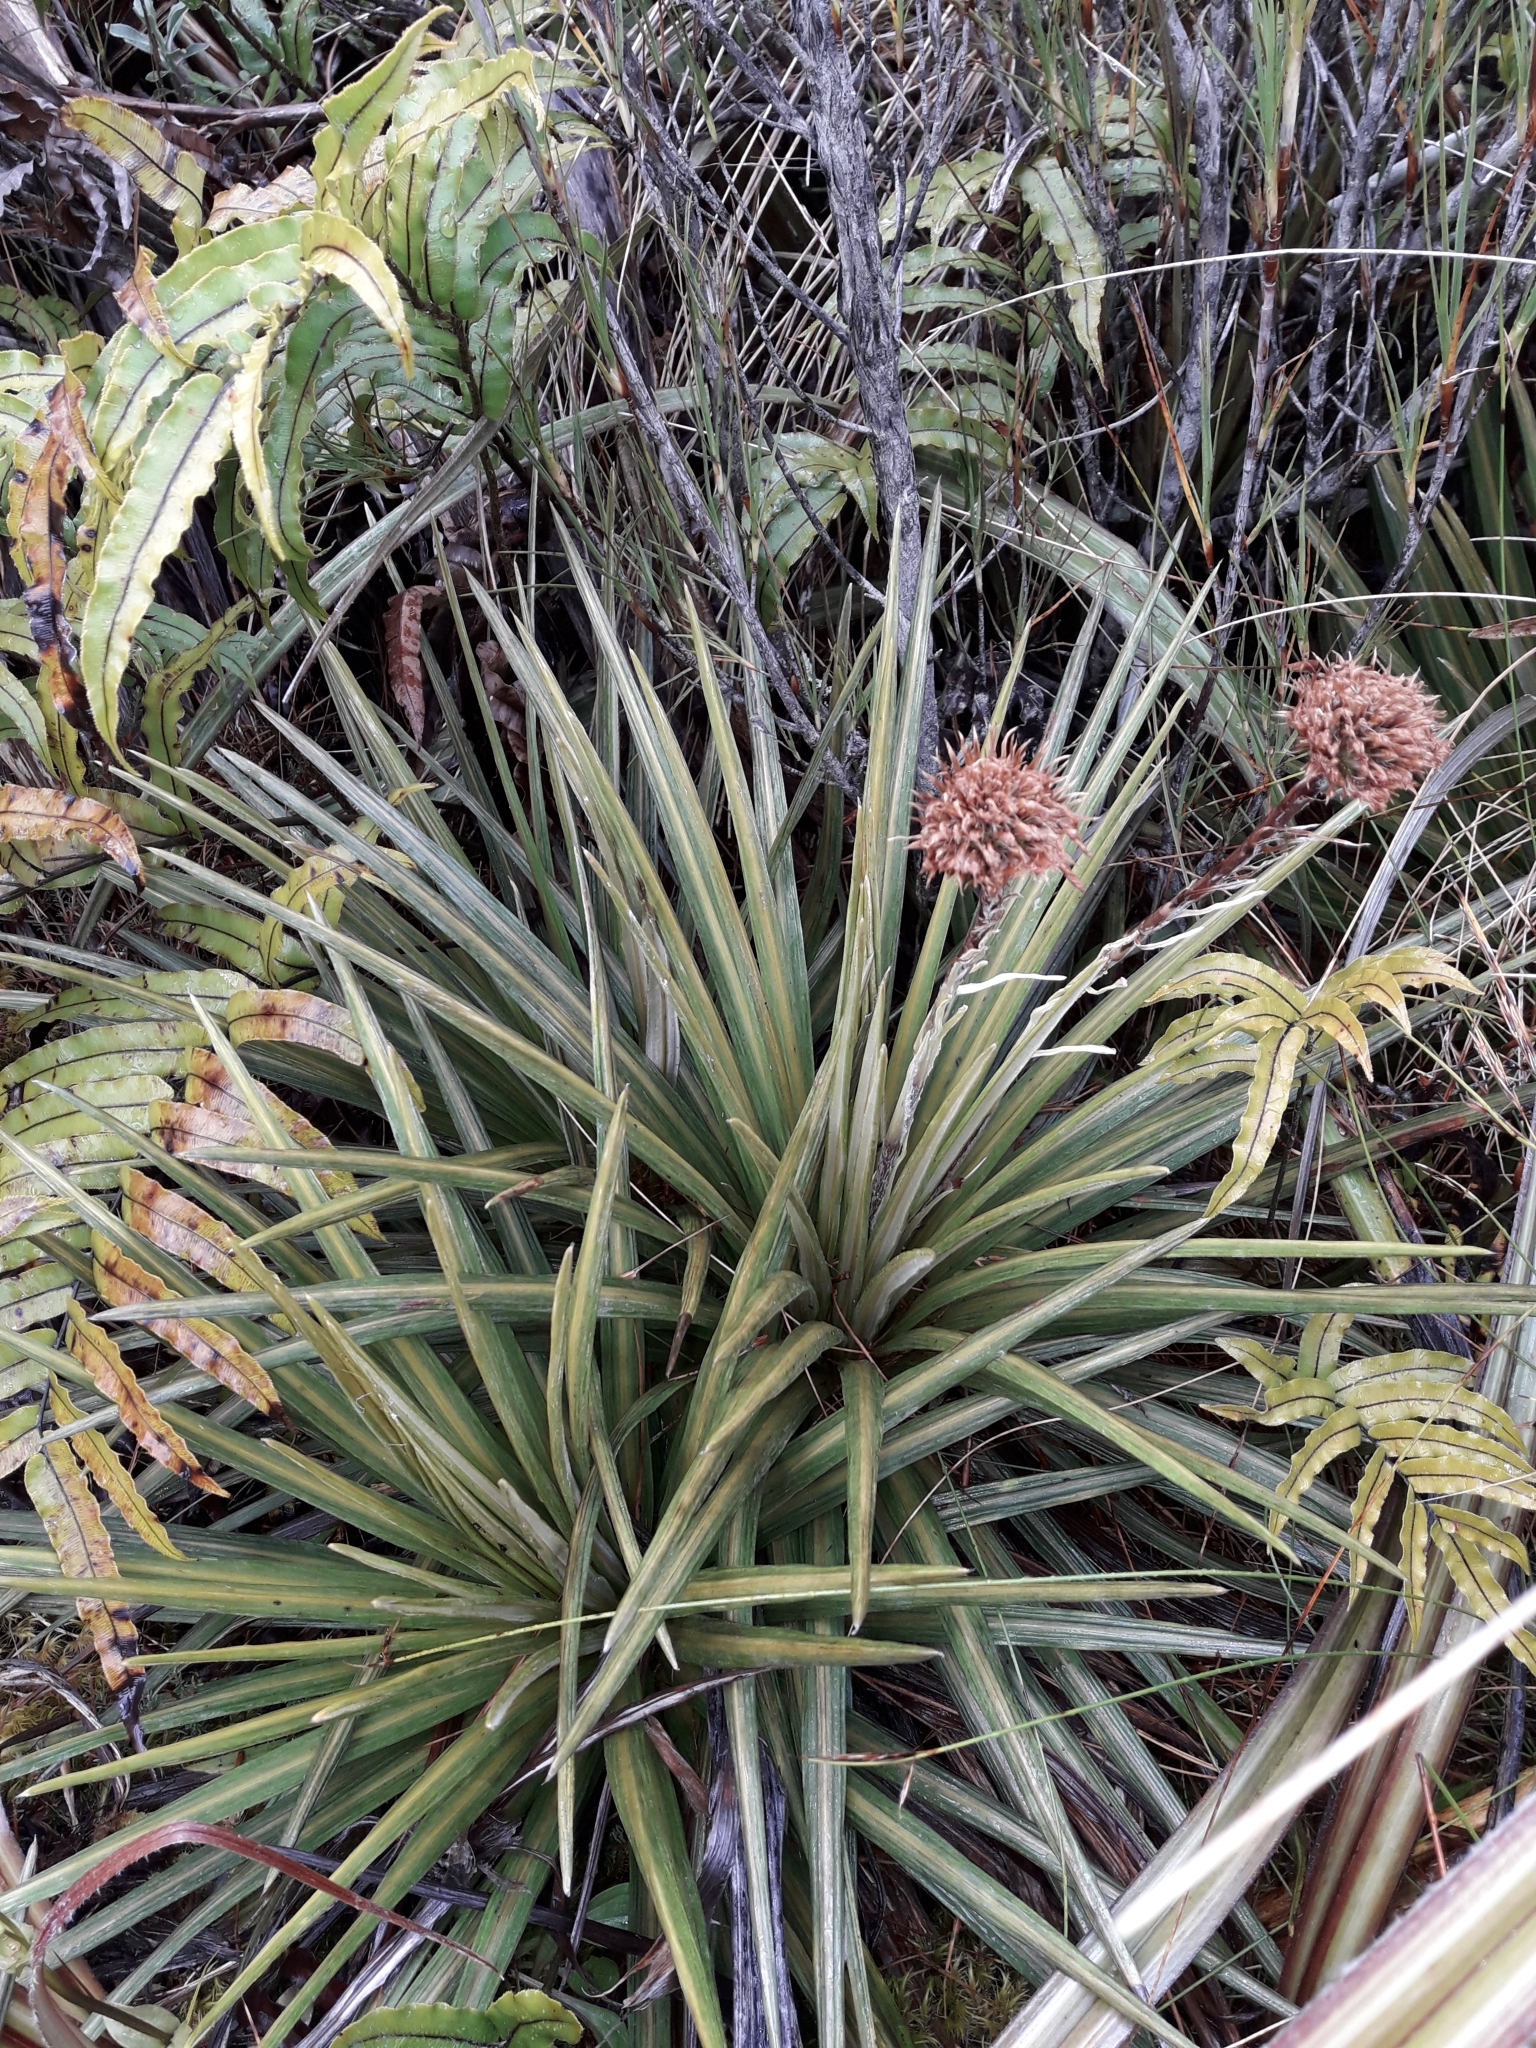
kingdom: Plantae
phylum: Tracheophyta
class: Magnoliopsida
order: Asterales
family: Asteraceae
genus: Celmisia
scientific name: Celmisia armstrongii
